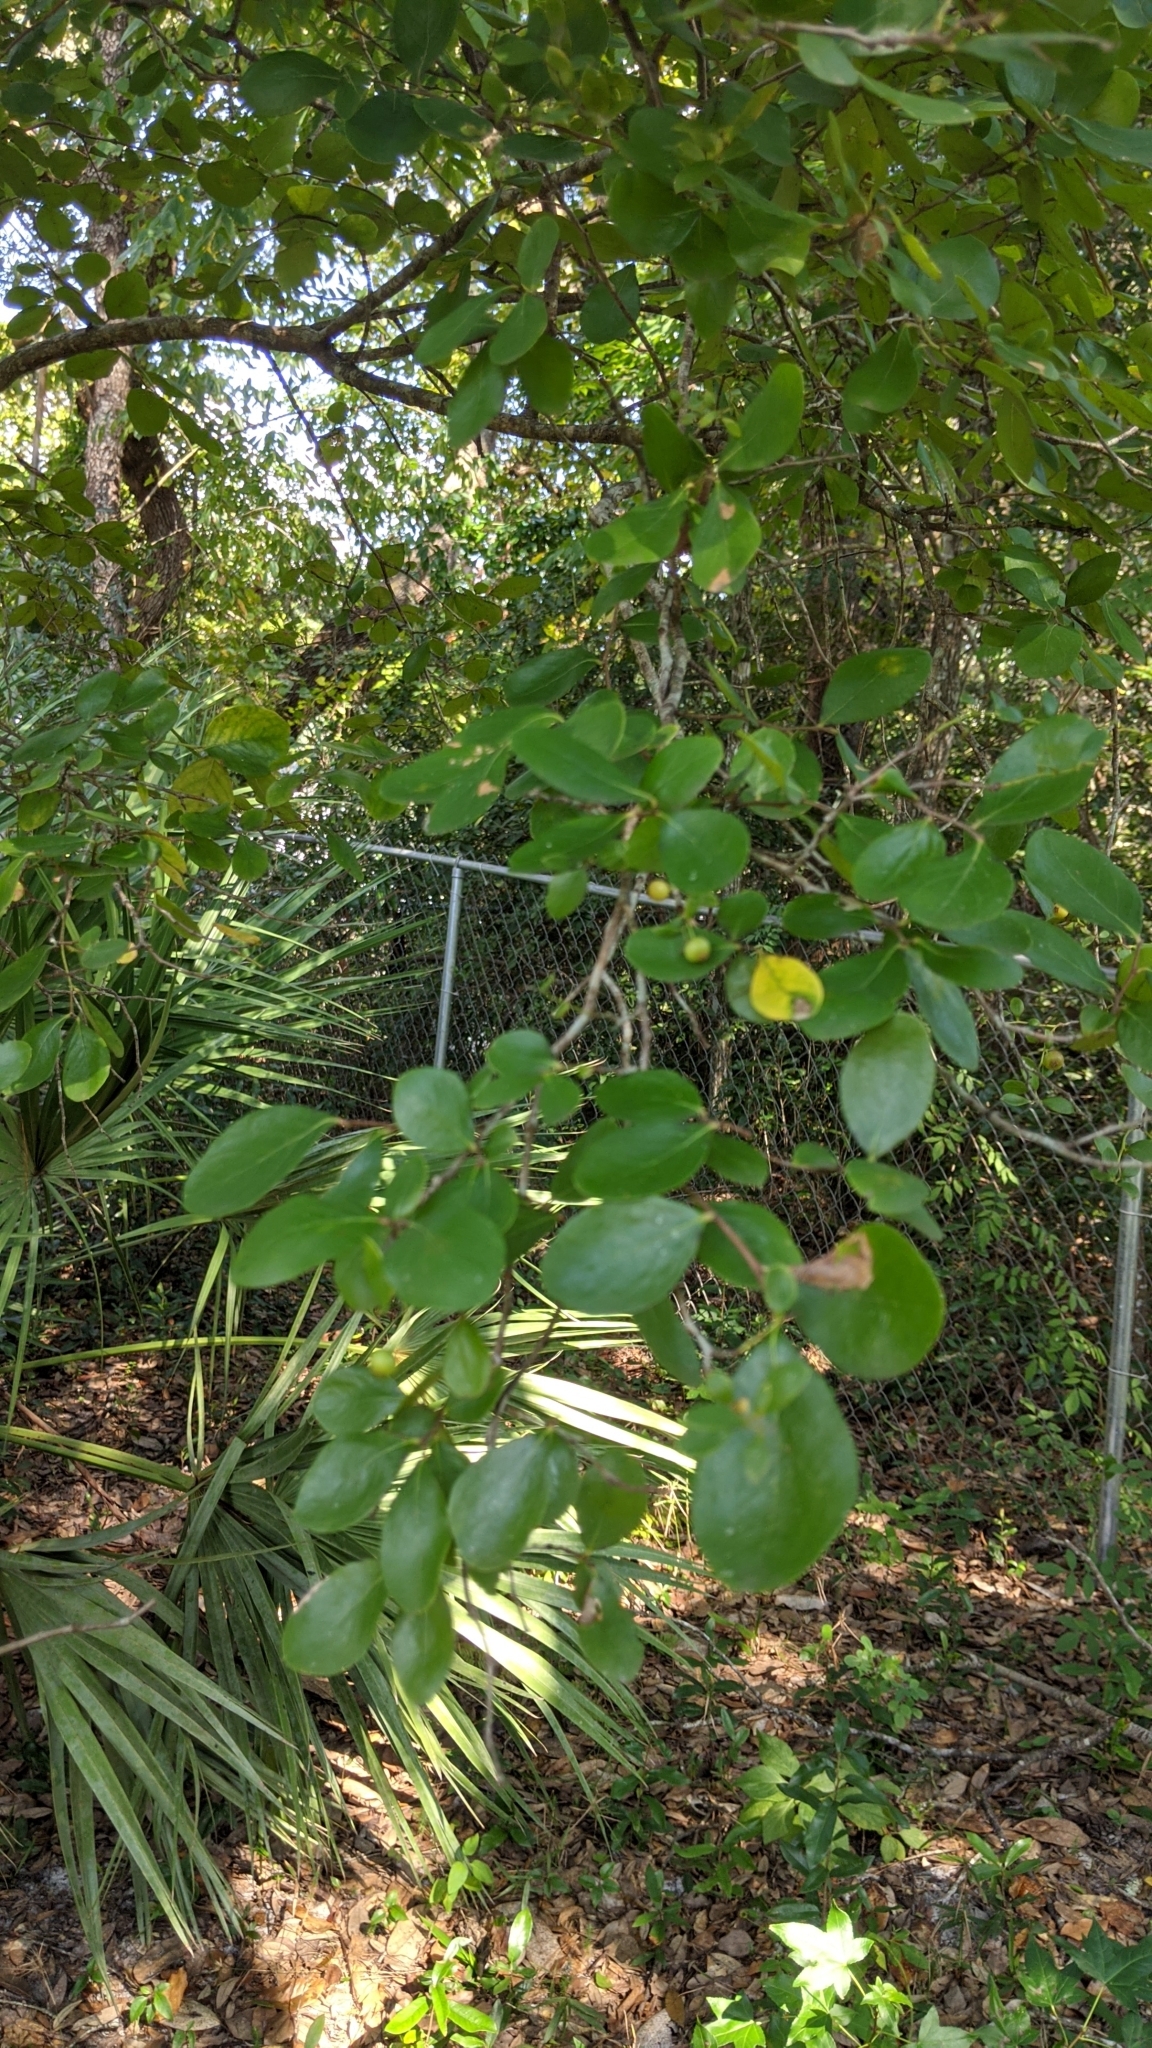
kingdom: Plantae
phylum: Tracheophyta
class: Magnoliopsida
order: Ericales
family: Ericaceae
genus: Vaccinium
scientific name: Vaccinium arboreum
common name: Farkleberry
